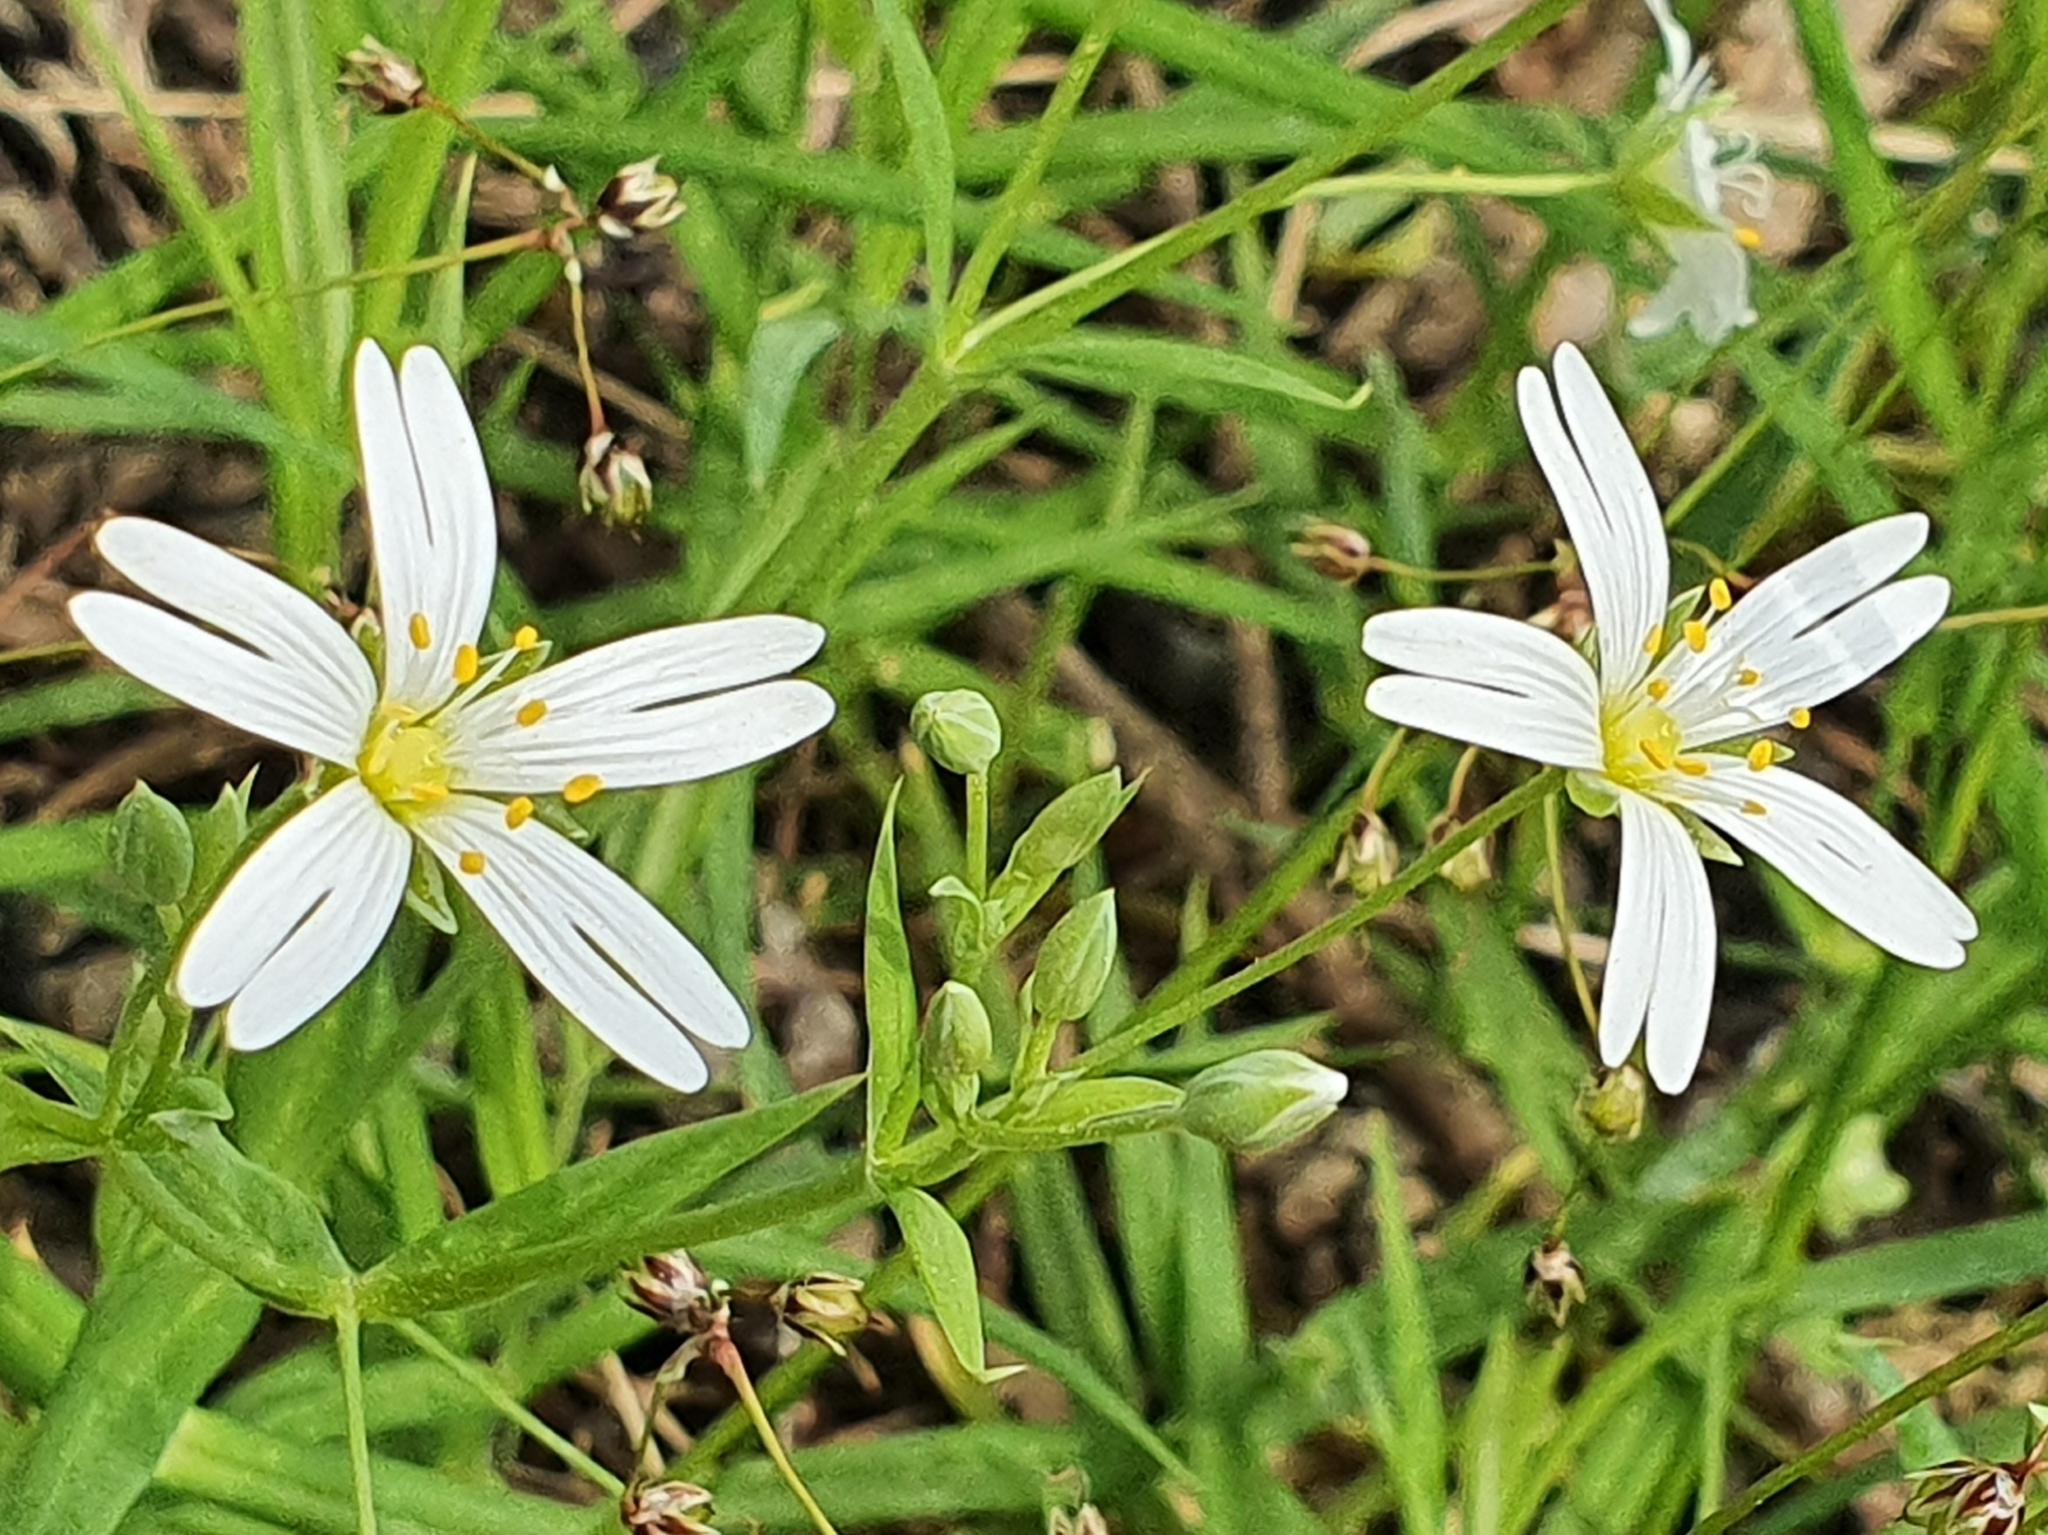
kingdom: Plantae
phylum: Tracheophyta
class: Magnoliopsida
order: Caryophyllales
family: Caryophyllaceae
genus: Rabelera
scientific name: Rabelera holostea
